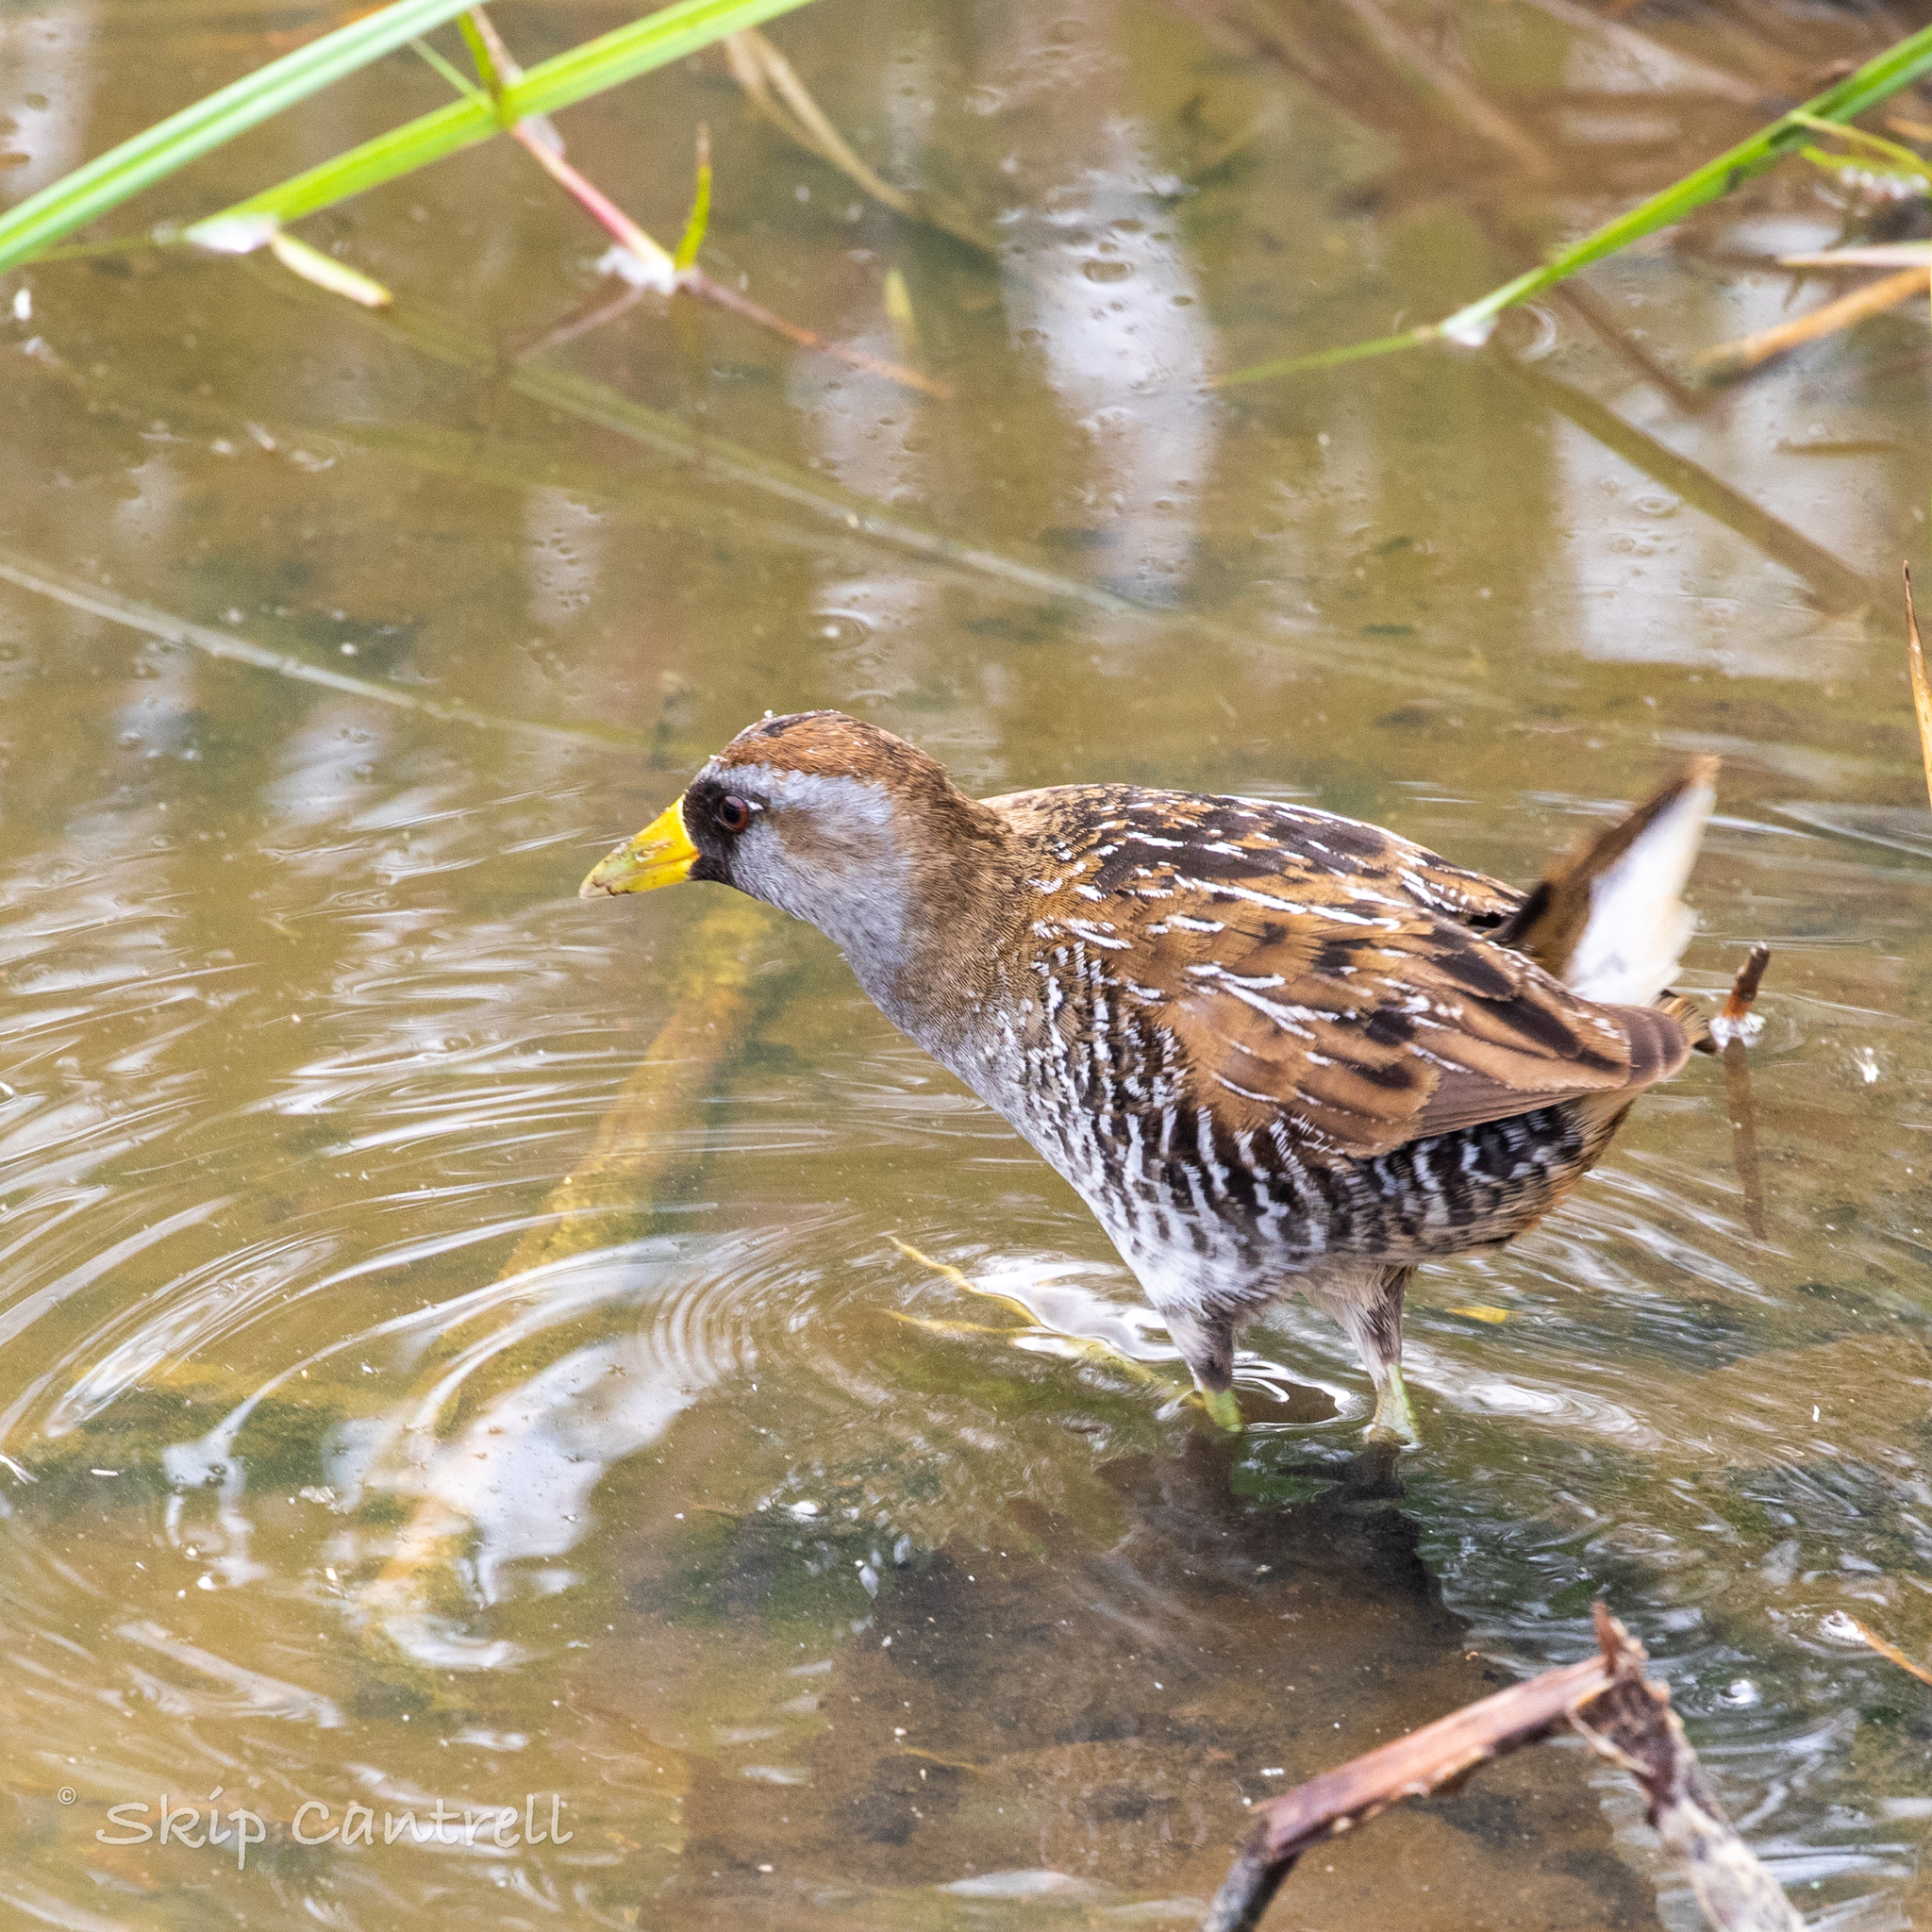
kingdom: Animalia
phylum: Chordata
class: Aves
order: Gruiformes
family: Rallidae
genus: Porzana
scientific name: Porzana carolina
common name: Sora
